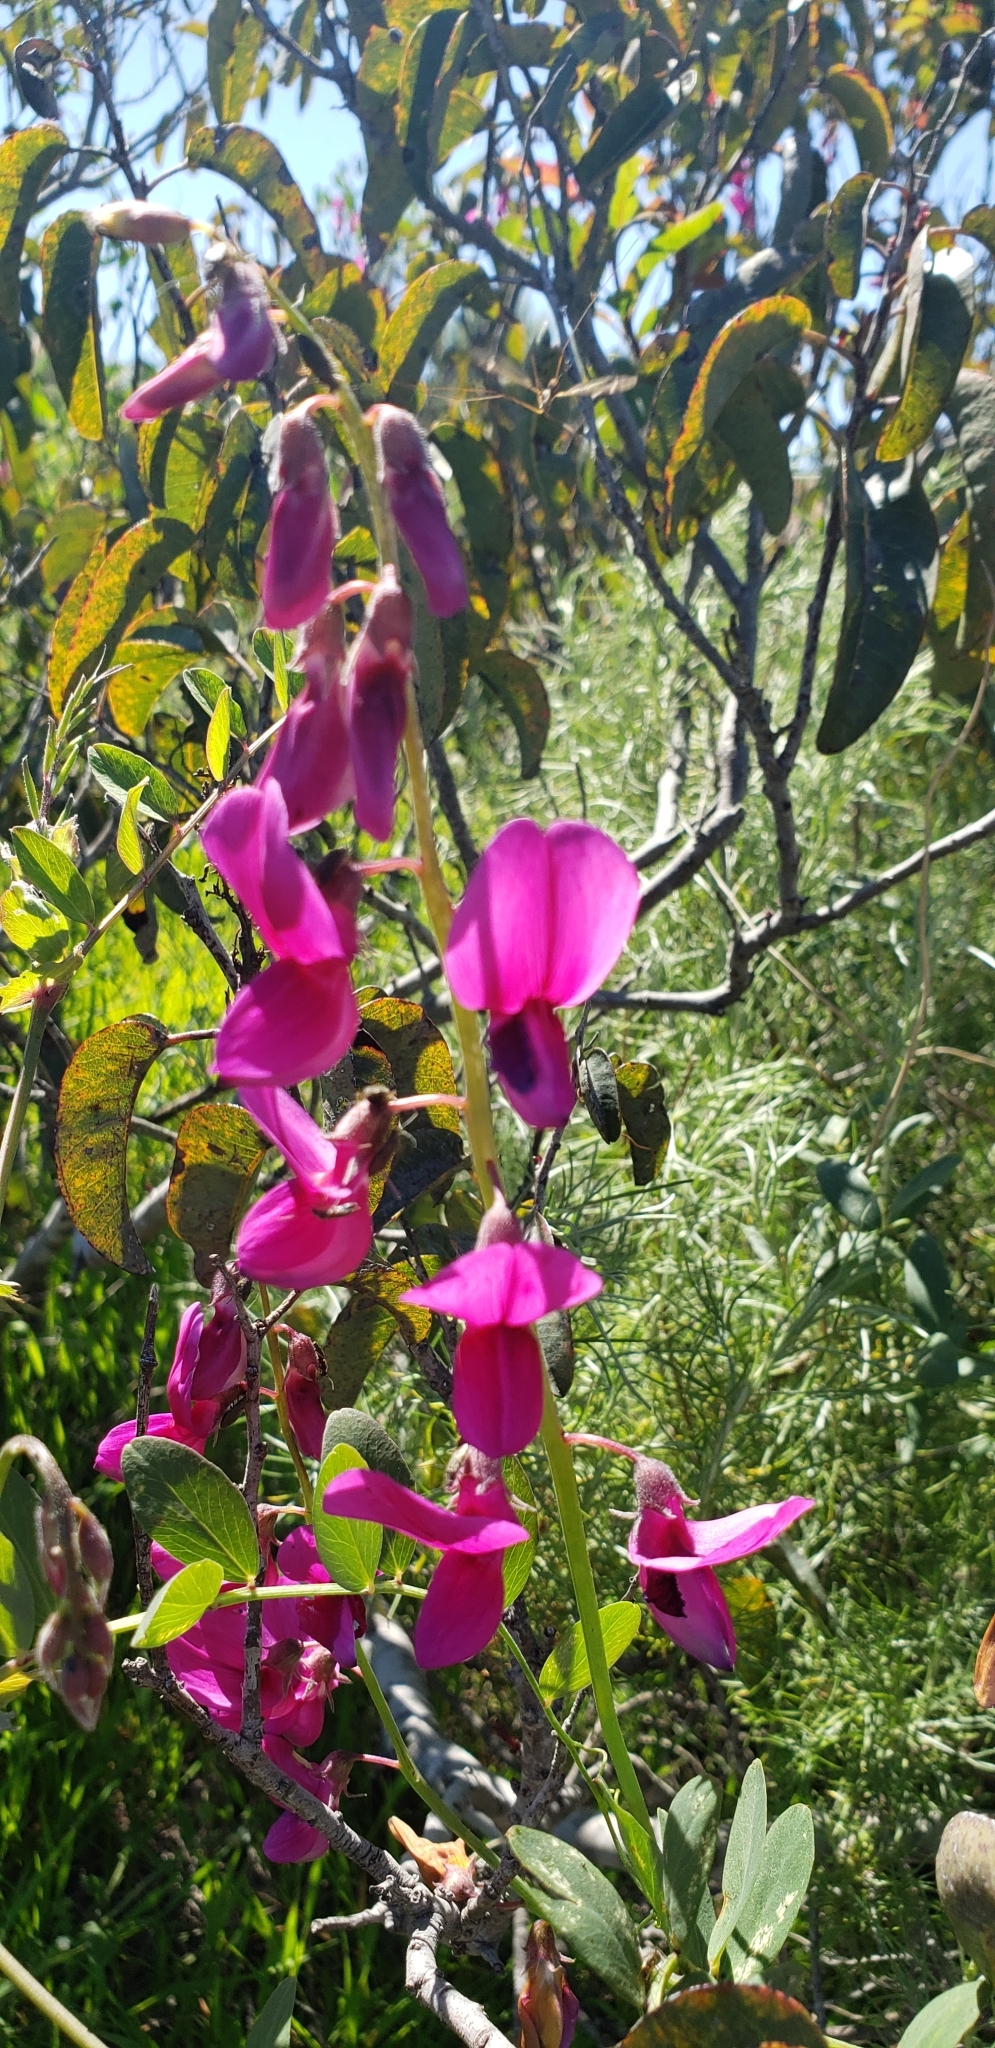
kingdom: Plantae
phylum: Tracheophyta
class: Magnoliopsida
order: Fabales
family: Fabaceae
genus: Lathyrus
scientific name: Lathyrus vestitus
